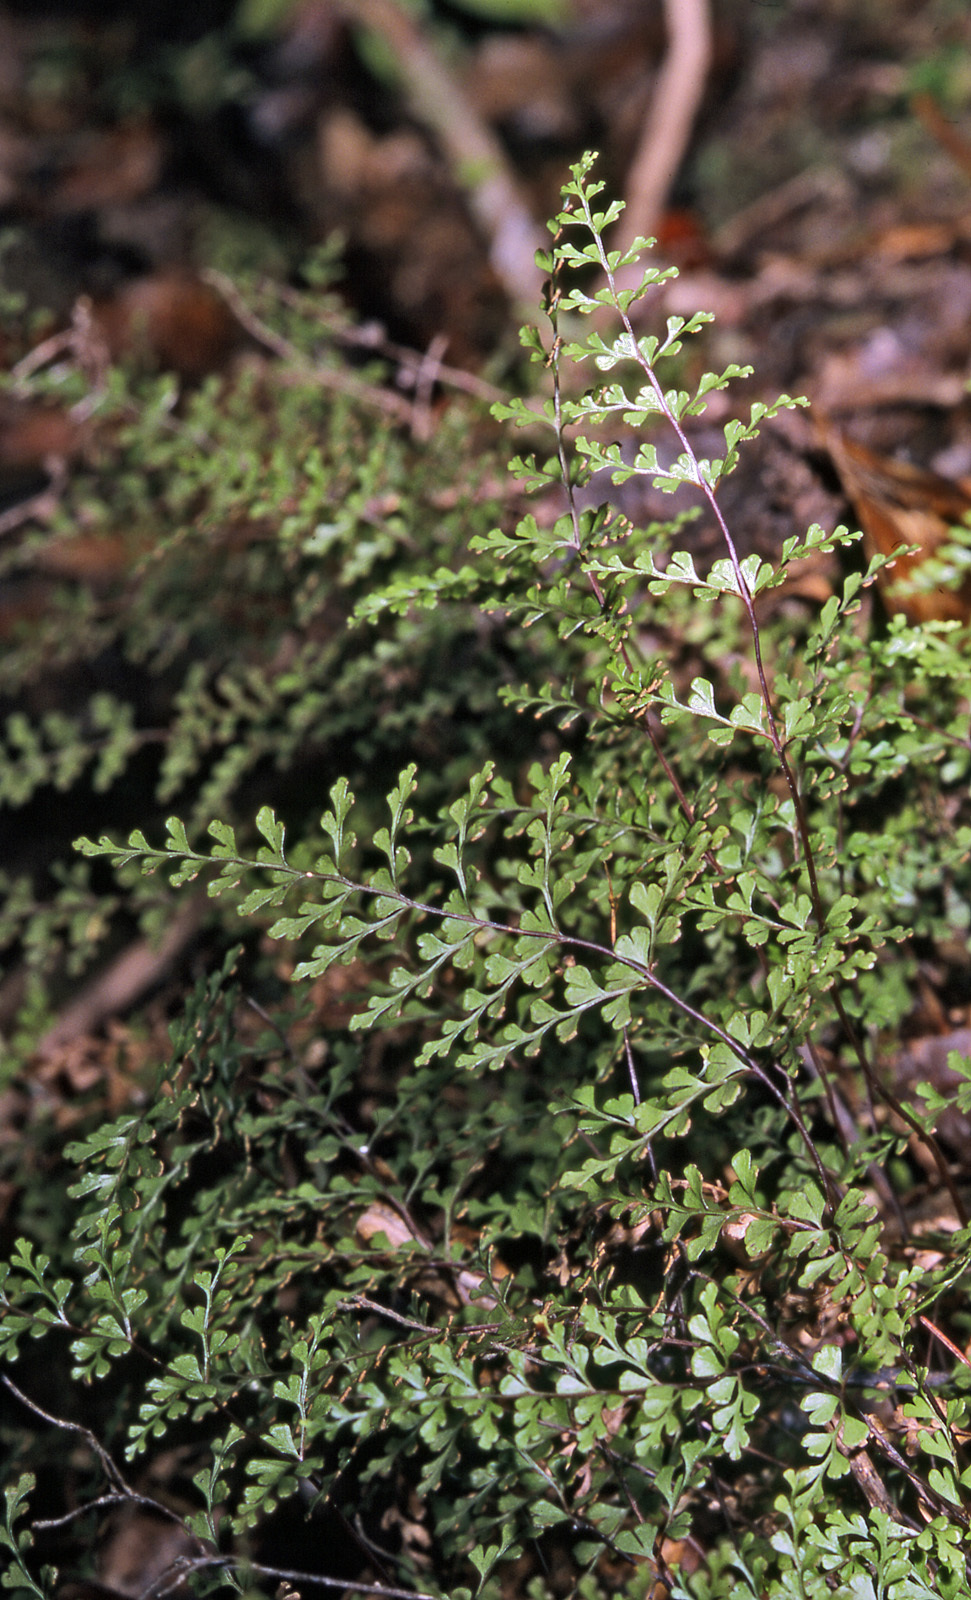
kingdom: Plantae
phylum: Tracheophyta
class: Polypodiopsida
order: Polypodiales
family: Lindsaeaceae
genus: Lindsaea
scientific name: Lindsaea trichomanoides
